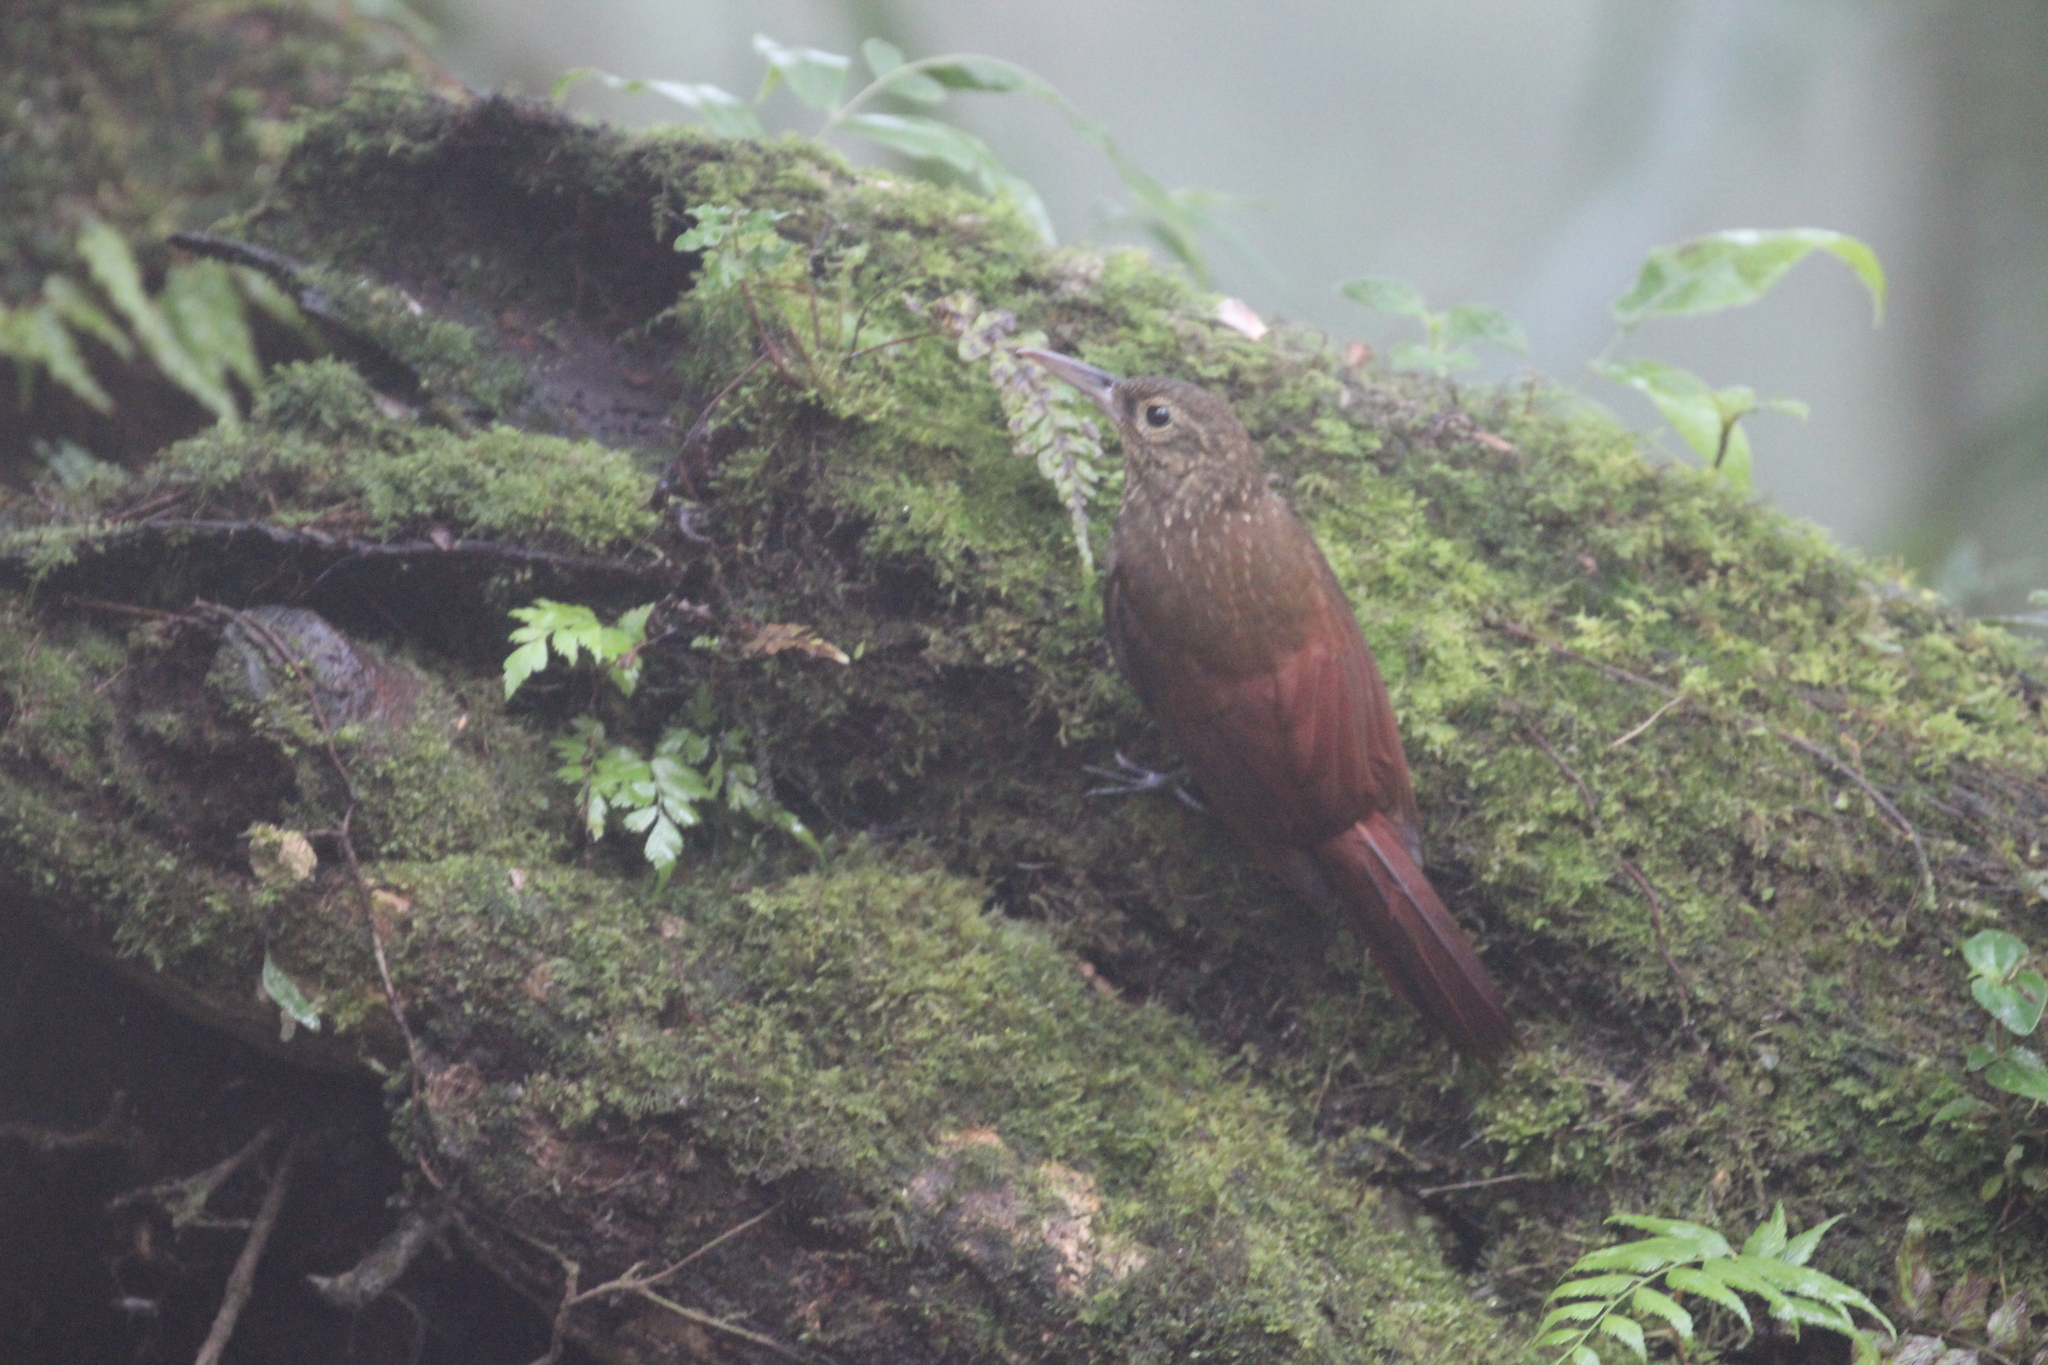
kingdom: Animalia
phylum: Chordata
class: Aves
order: Passeriformes
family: Furnariidae
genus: Xiphorhynchus
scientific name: Xiphorhynchus erythropygius
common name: Spotted woodcreeper
